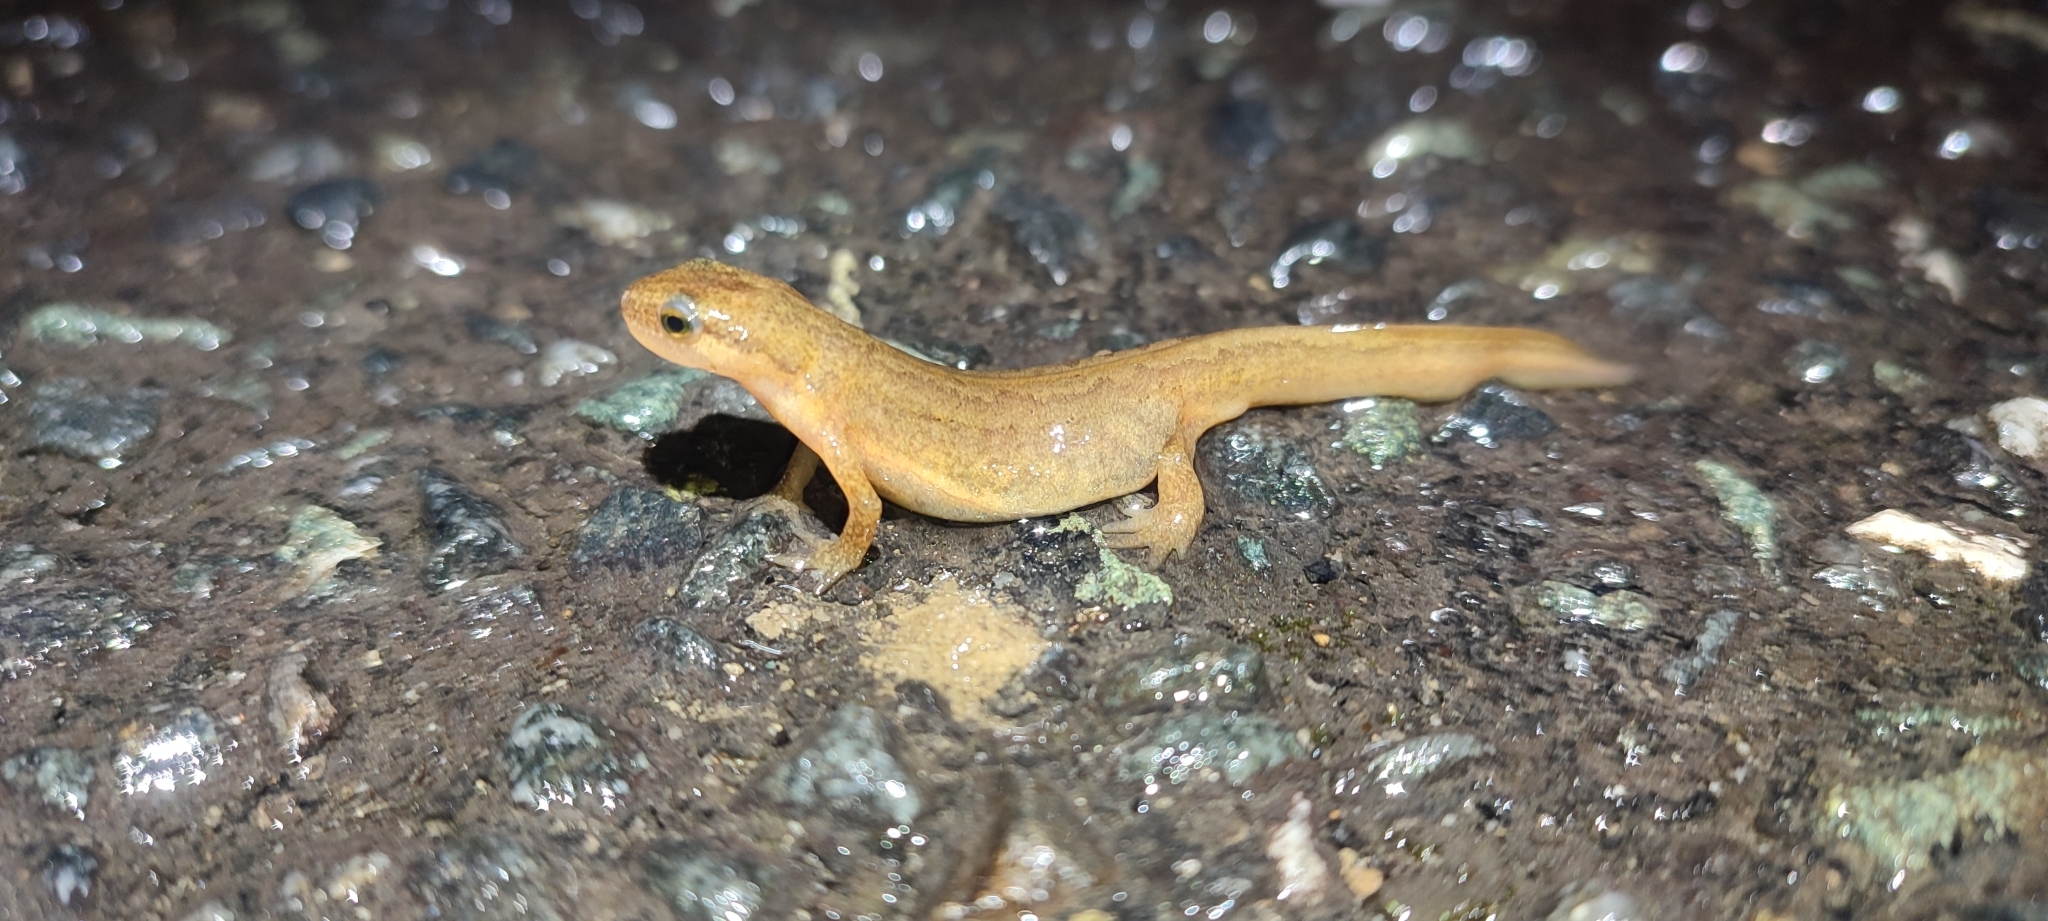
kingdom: Animalia
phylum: Chordata
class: Amphibia
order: Caudata
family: Salamandridae
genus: Lissotriton
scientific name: Lissotriton helveticus
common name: Palmate newt
